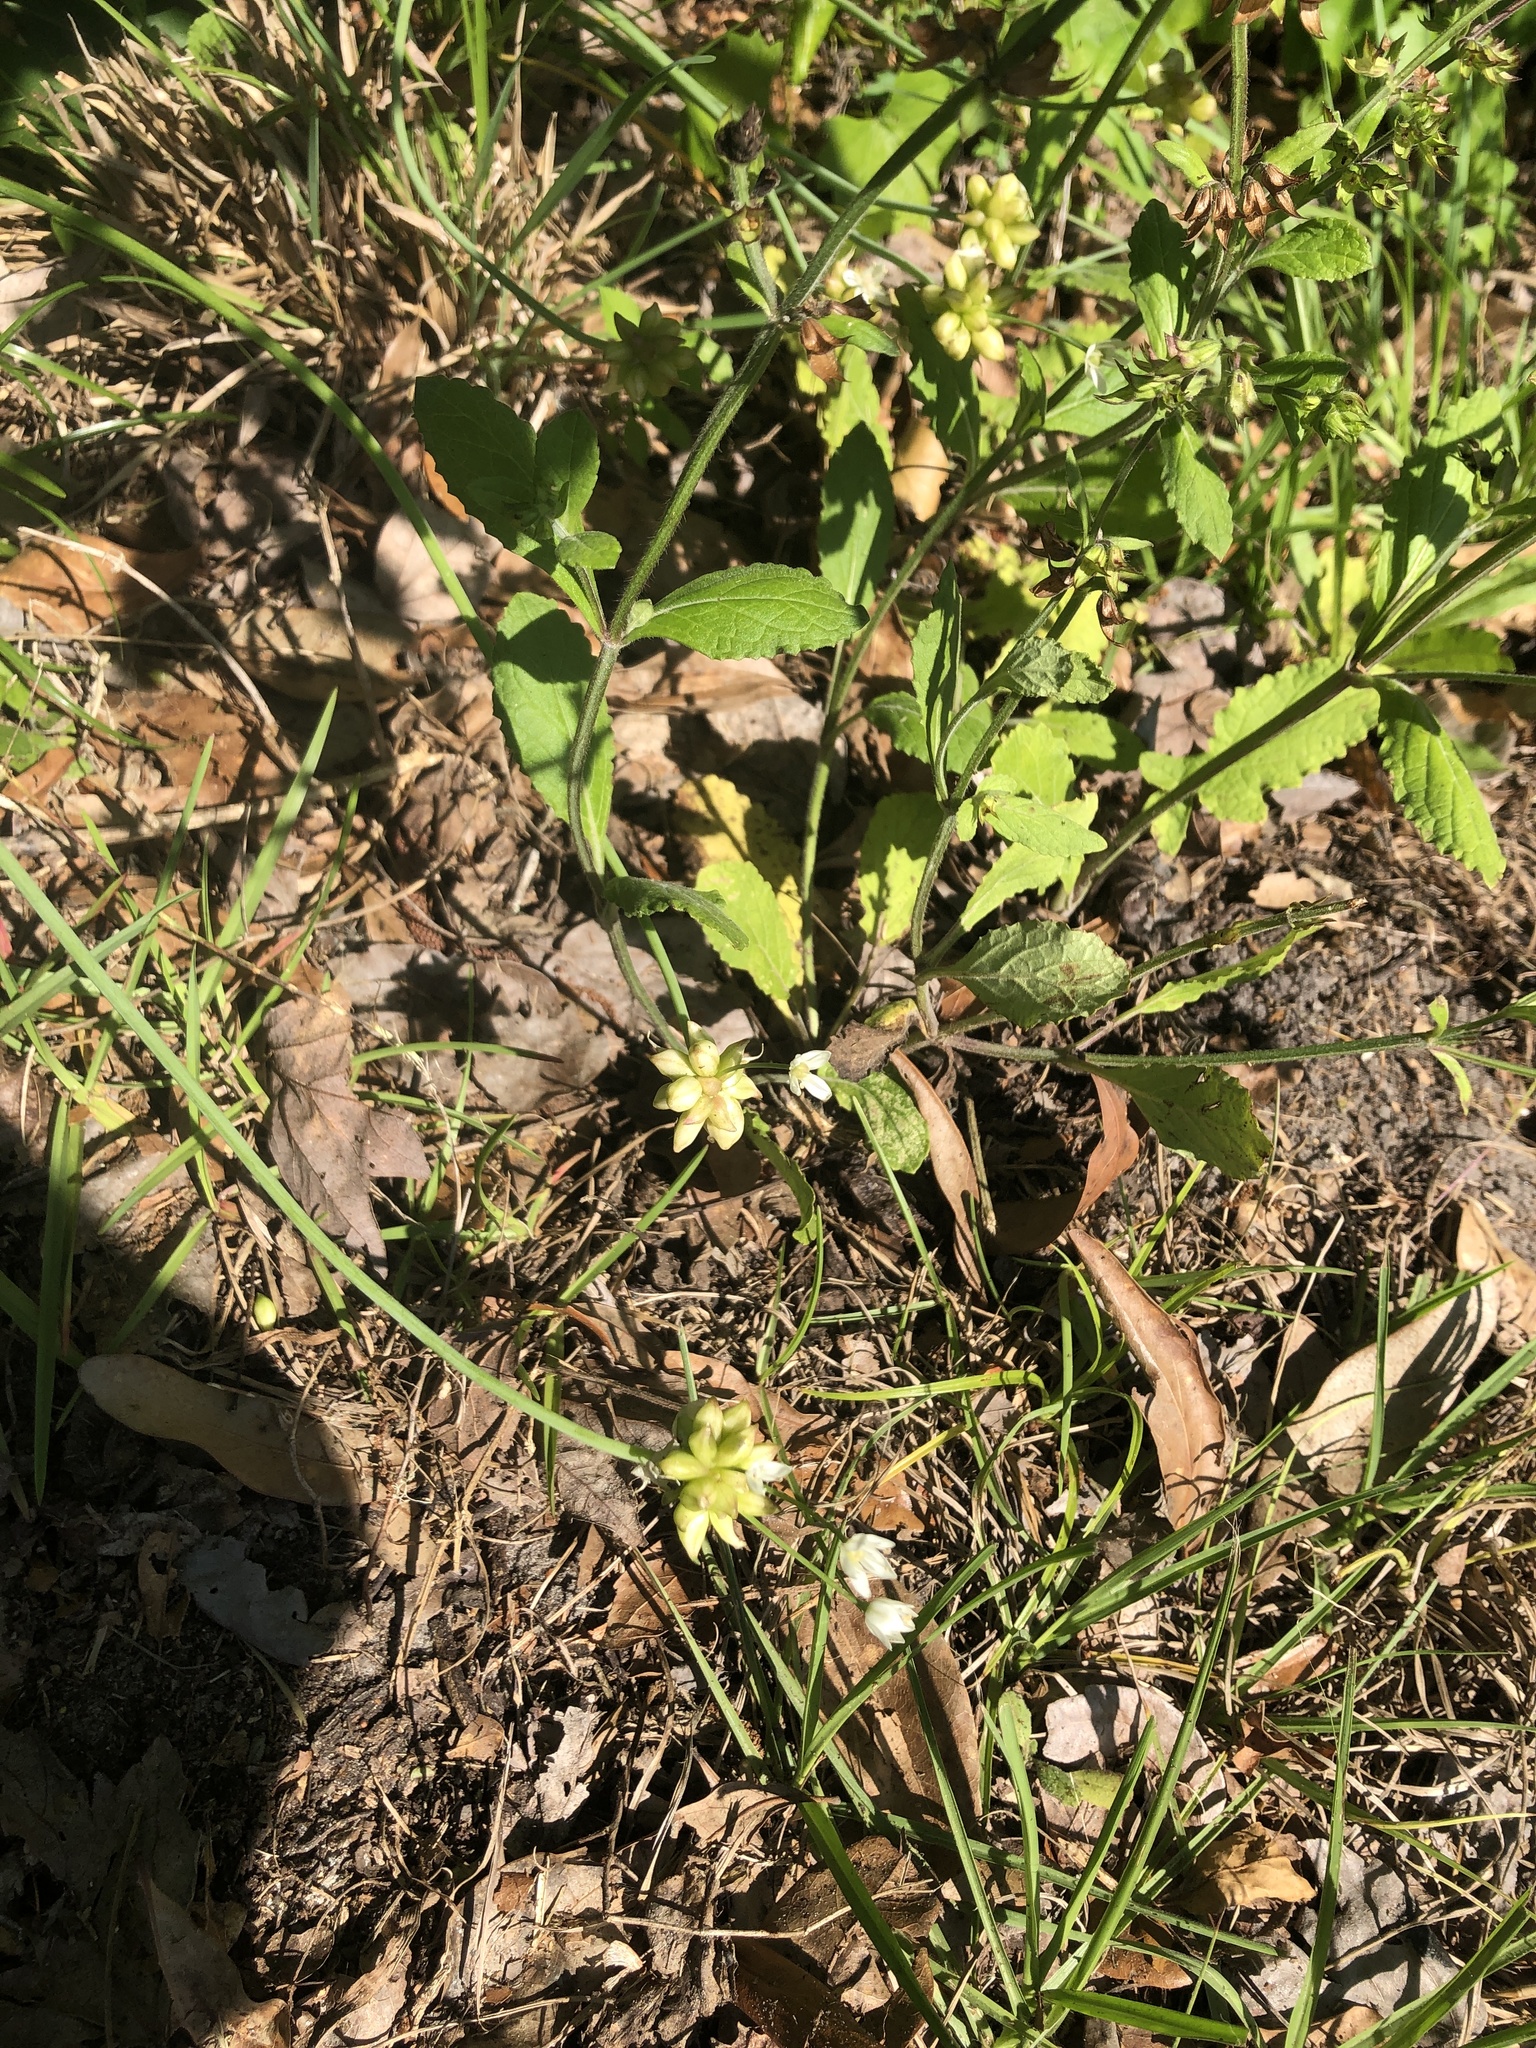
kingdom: Plantae
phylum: Tracheophyta
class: Liliopsida
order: Asparagales
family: Amaryllidaceae
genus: Allium
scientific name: Allium canadense
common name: Meadow garlic
